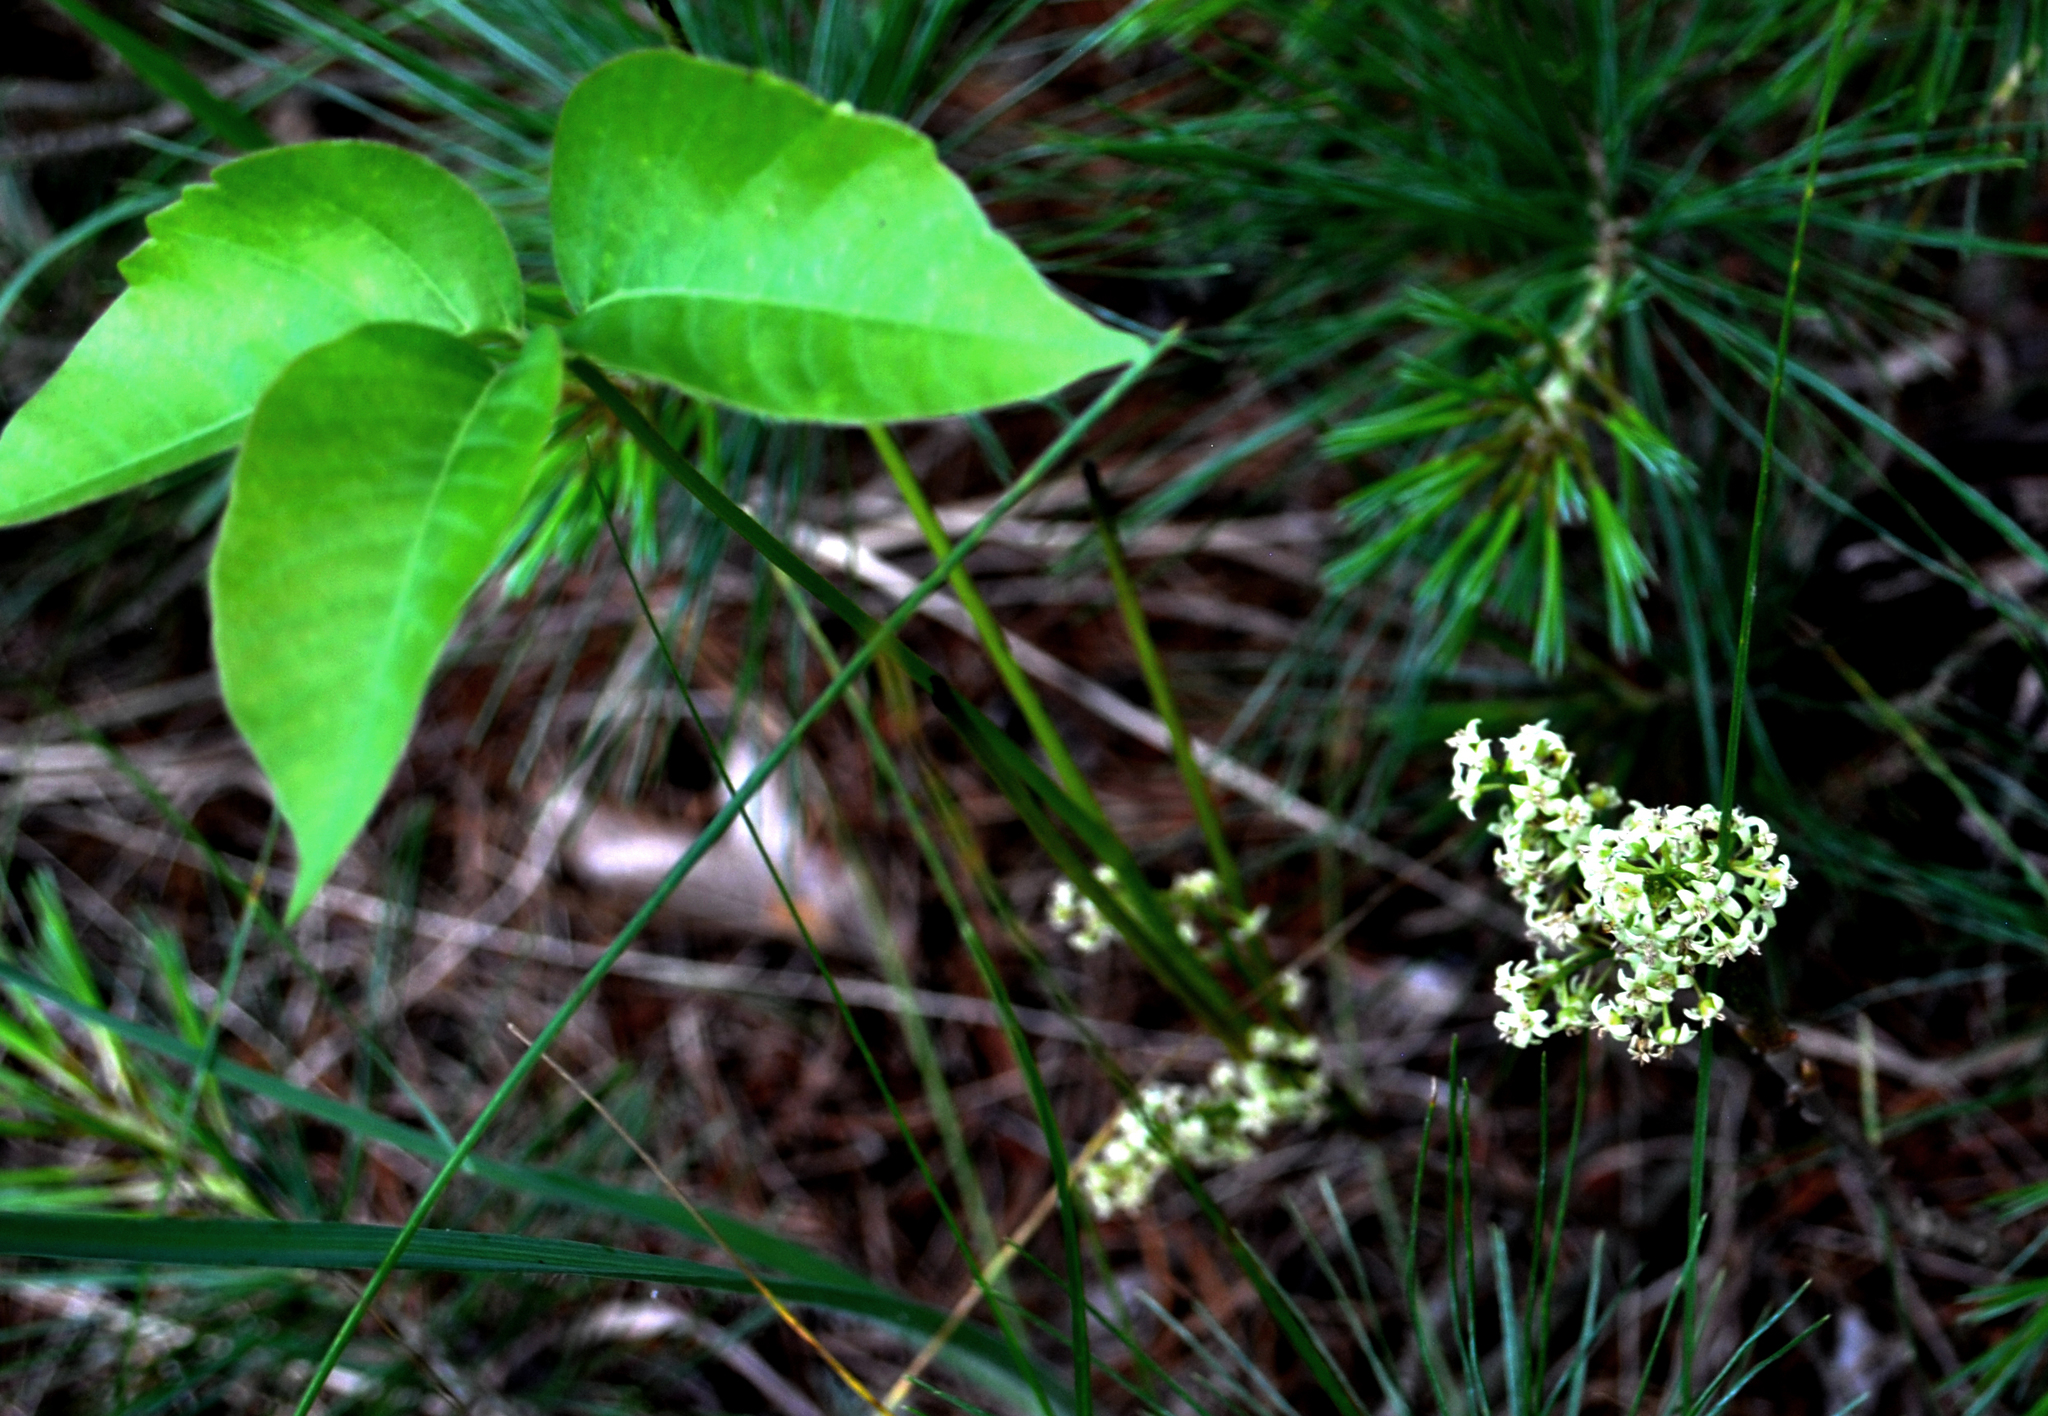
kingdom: Plantae
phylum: Tracheophyta
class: Magnoliopsida
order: Sapindales
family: Anacardiaceae
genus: Toxicodendron
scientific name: Toxicodendron rydbergii
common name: Rydberg's poison-ivy
